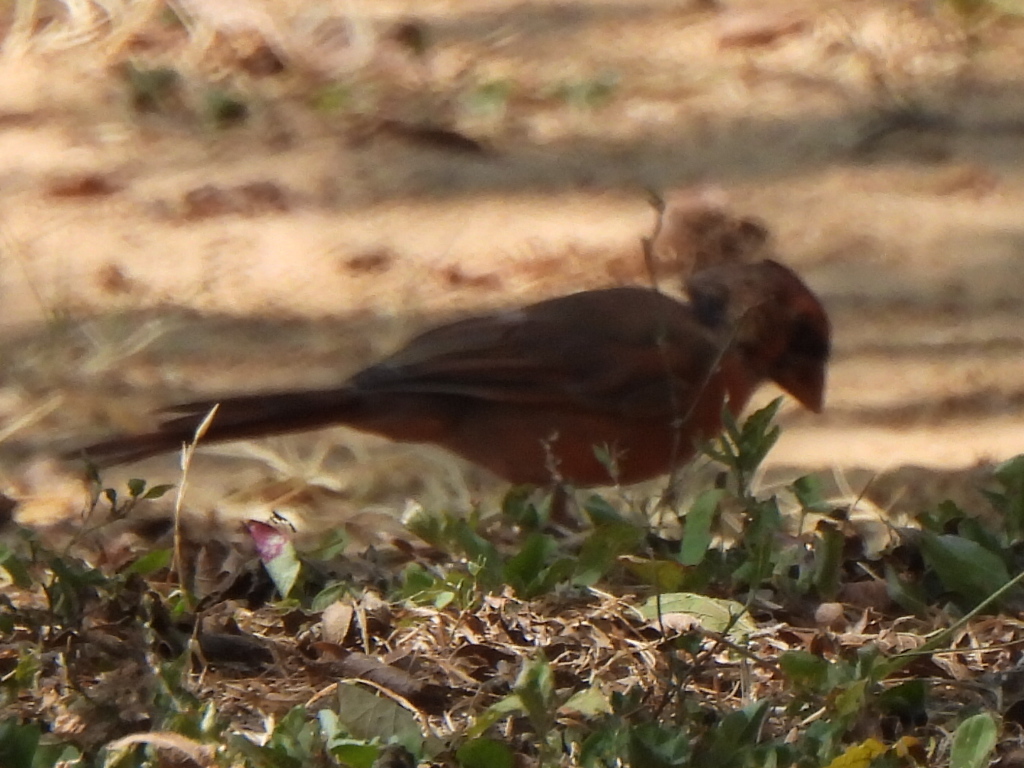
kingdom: Animalia
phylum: Chordata
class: Aves
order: Passeriformes
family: Cardinalidae
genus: Cardinalis
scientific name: Cardinalis cardinalis
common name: Northern cardinal
